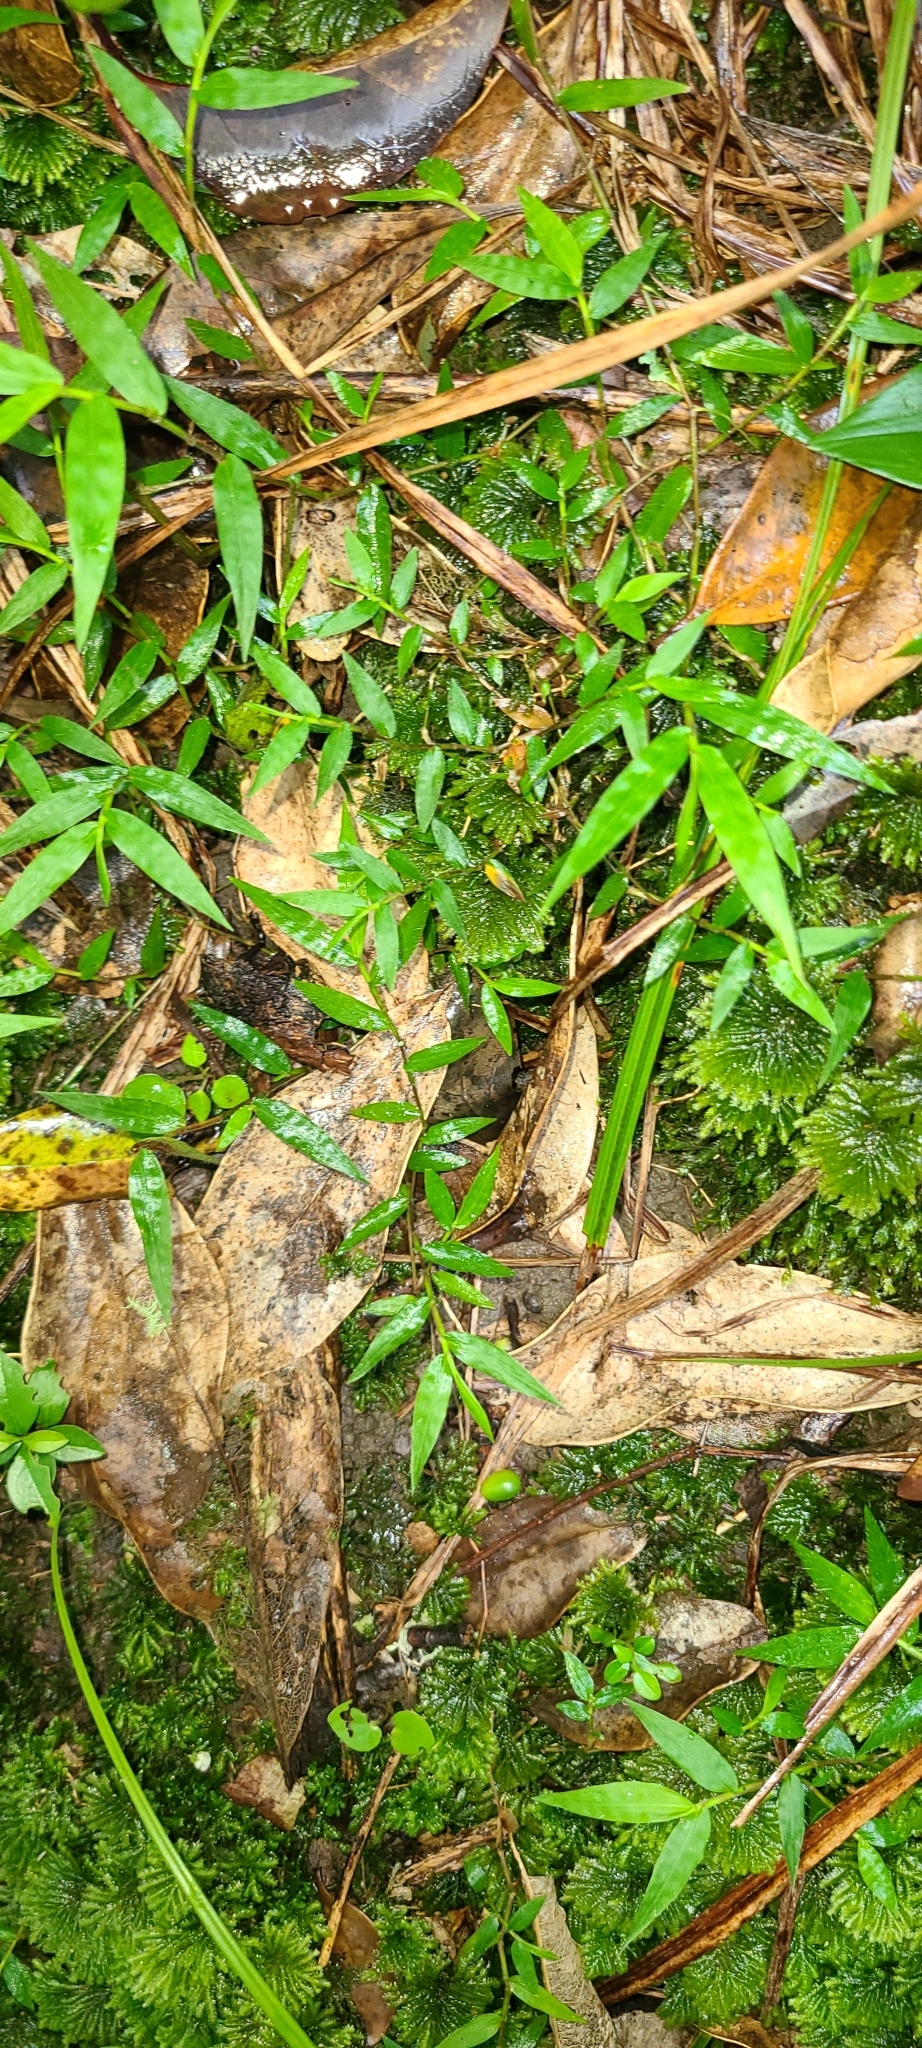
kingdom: Plantae
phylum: Tracheophyta
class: Liliopsida
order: Poales
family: Poaceae
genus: Oplismenus
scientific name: Oplismenus hirtellus
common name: Basketgrass
